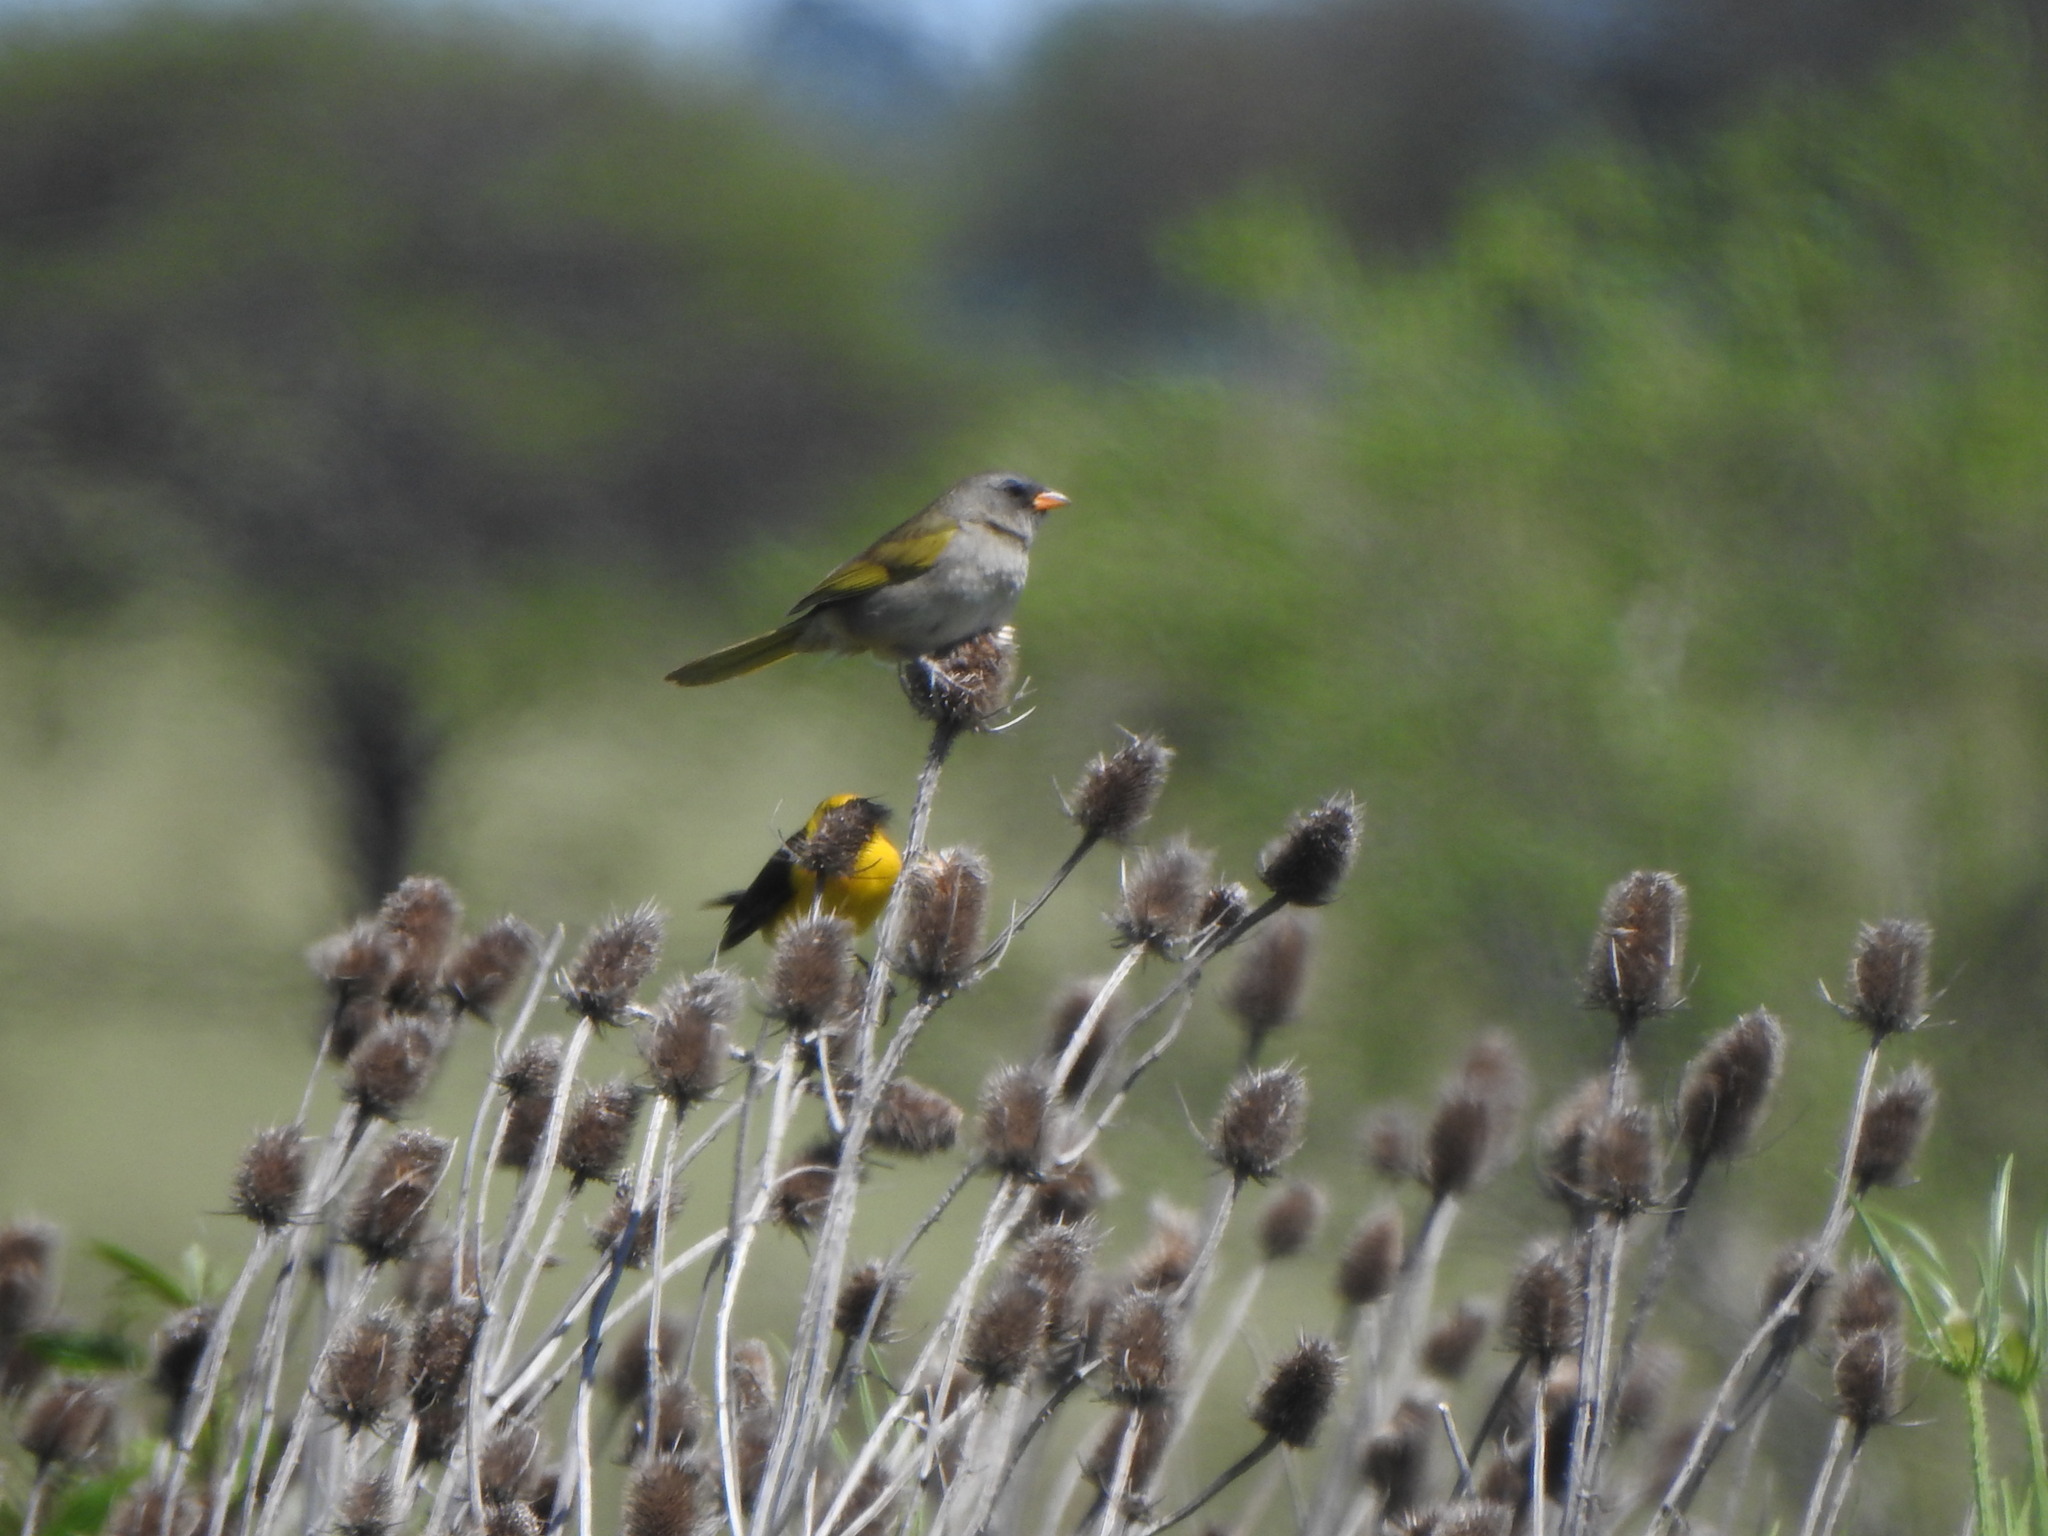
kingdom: Animalia
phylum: Chordata
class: Aves
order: Passeriformes
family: Thraupidae
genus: Embernagra
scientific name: Embernagra platensis
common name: Pampa finch
